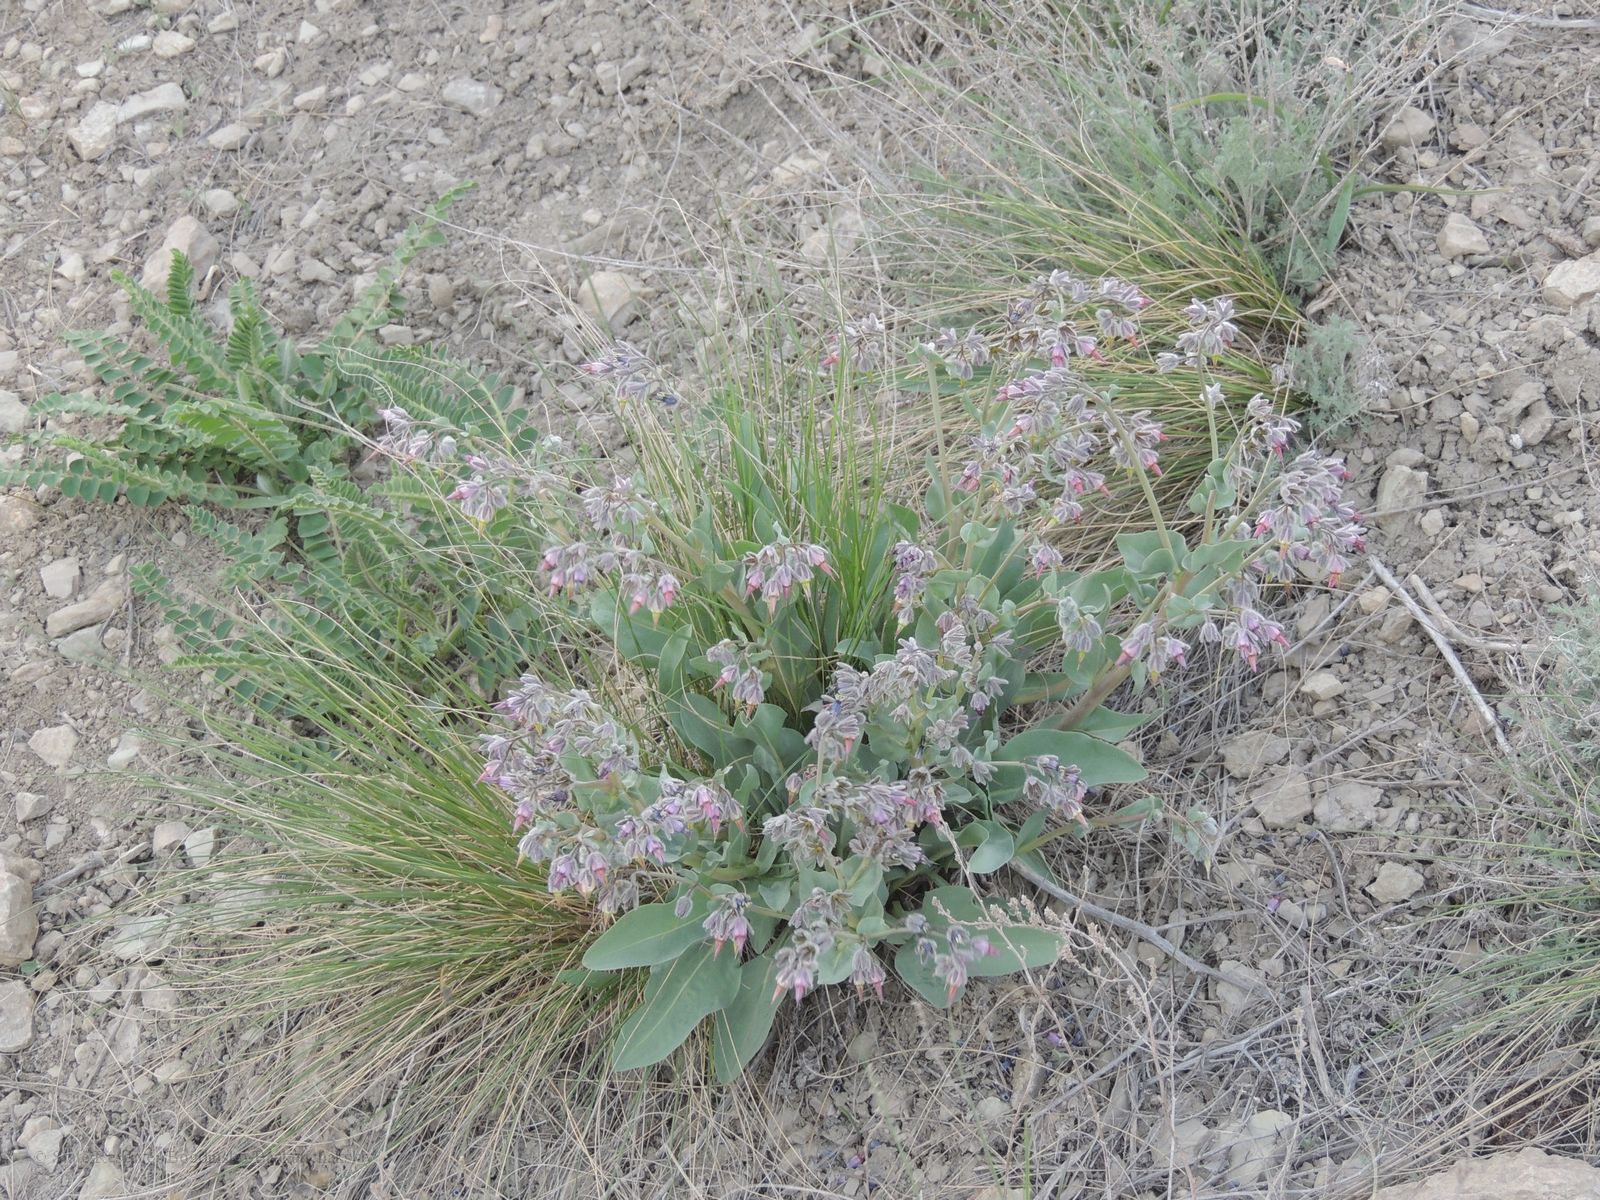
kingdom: Plantae
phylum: Tracheophyta
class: Magnoliopsida
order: Boraginales
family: Boraginaceae
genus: Rindera
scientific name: Rindera tetraspis
